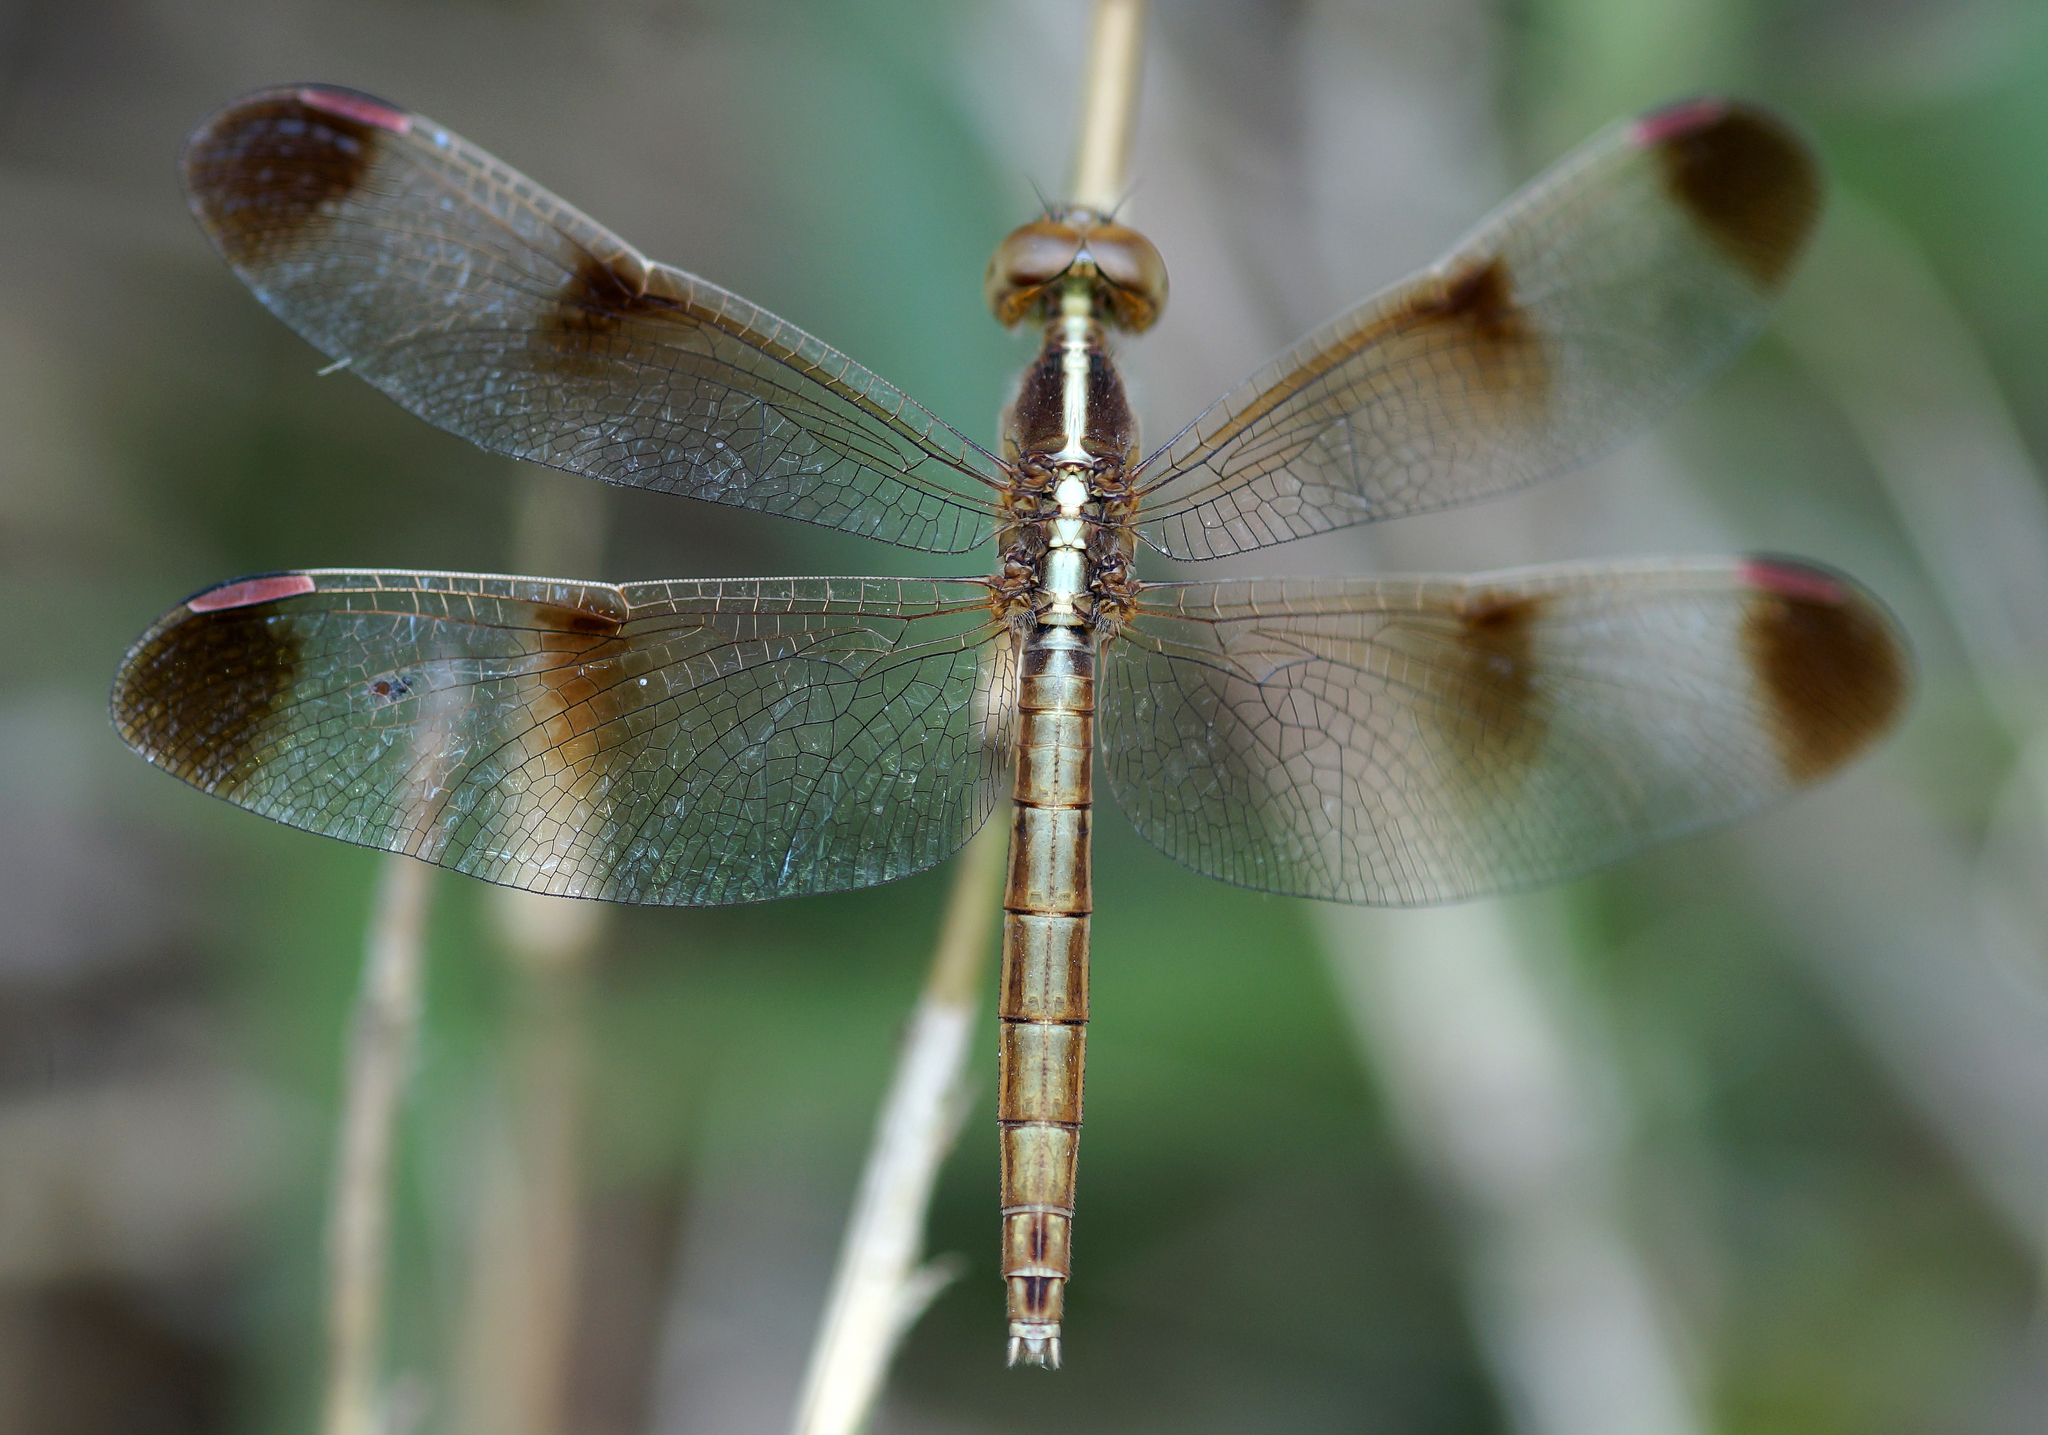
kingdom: Animalia
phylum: Arthropoda
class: Insecta
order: Odonata
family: Libellulidae
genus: Neurothemis
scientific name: Neurothemis tullia
